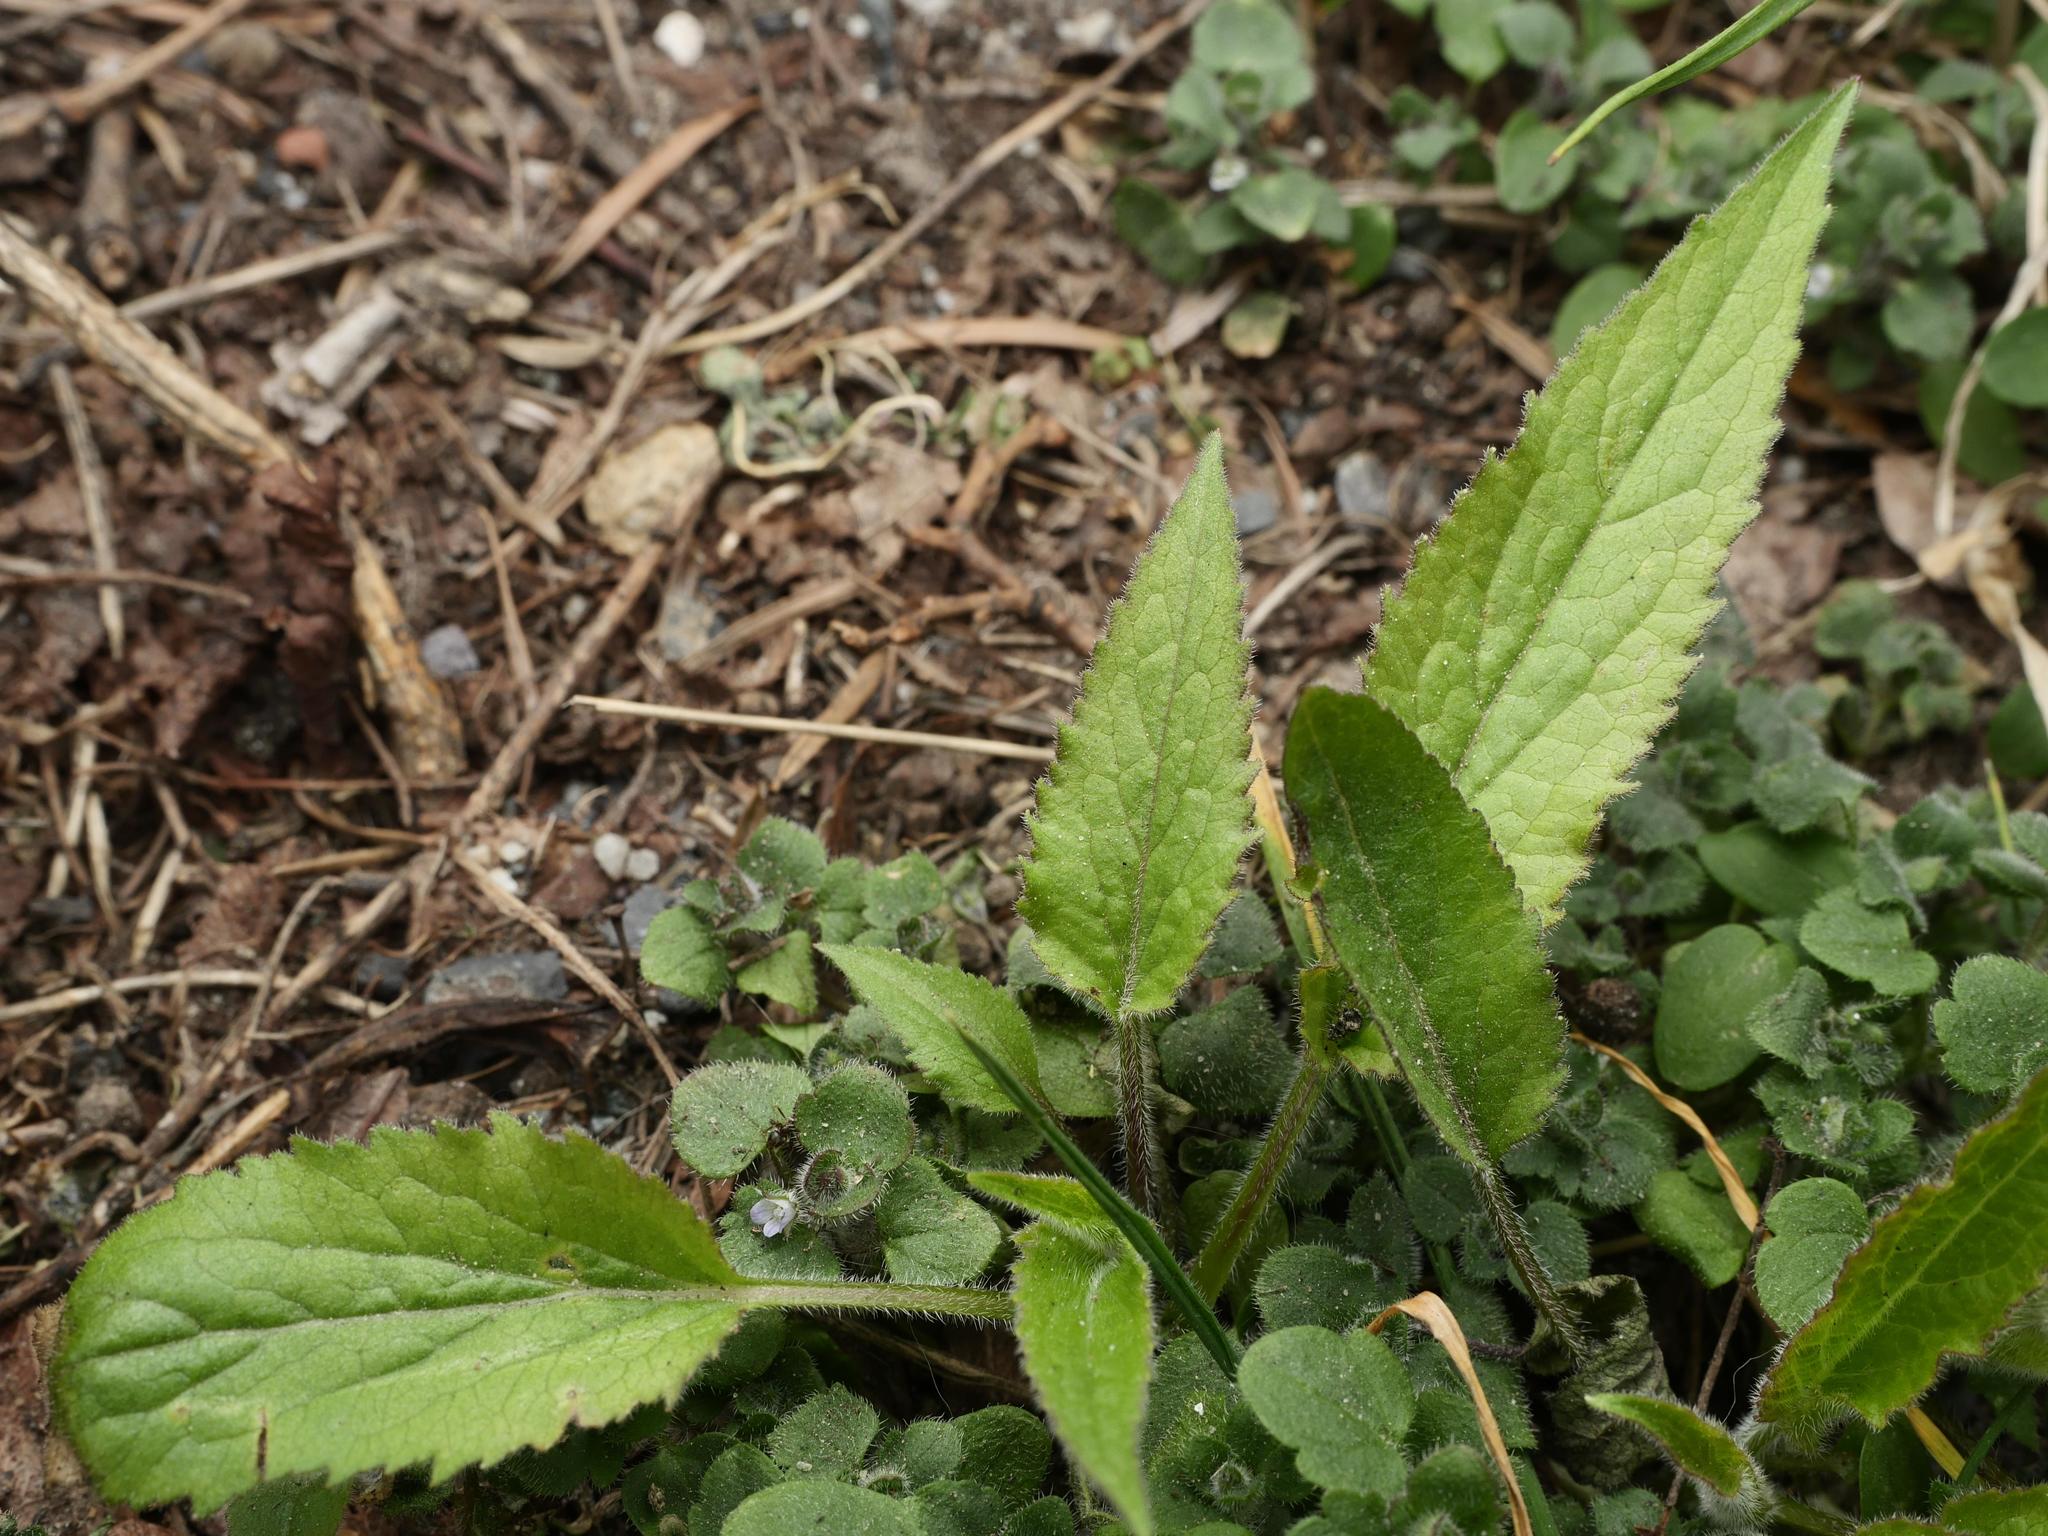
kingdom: Plantae
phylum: Tracheophyta
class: Magnoliopsida
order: Asterales
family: Campanulaceae
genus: Campanula
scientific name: Campanula rapunculoides
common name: Creeping bellflower
